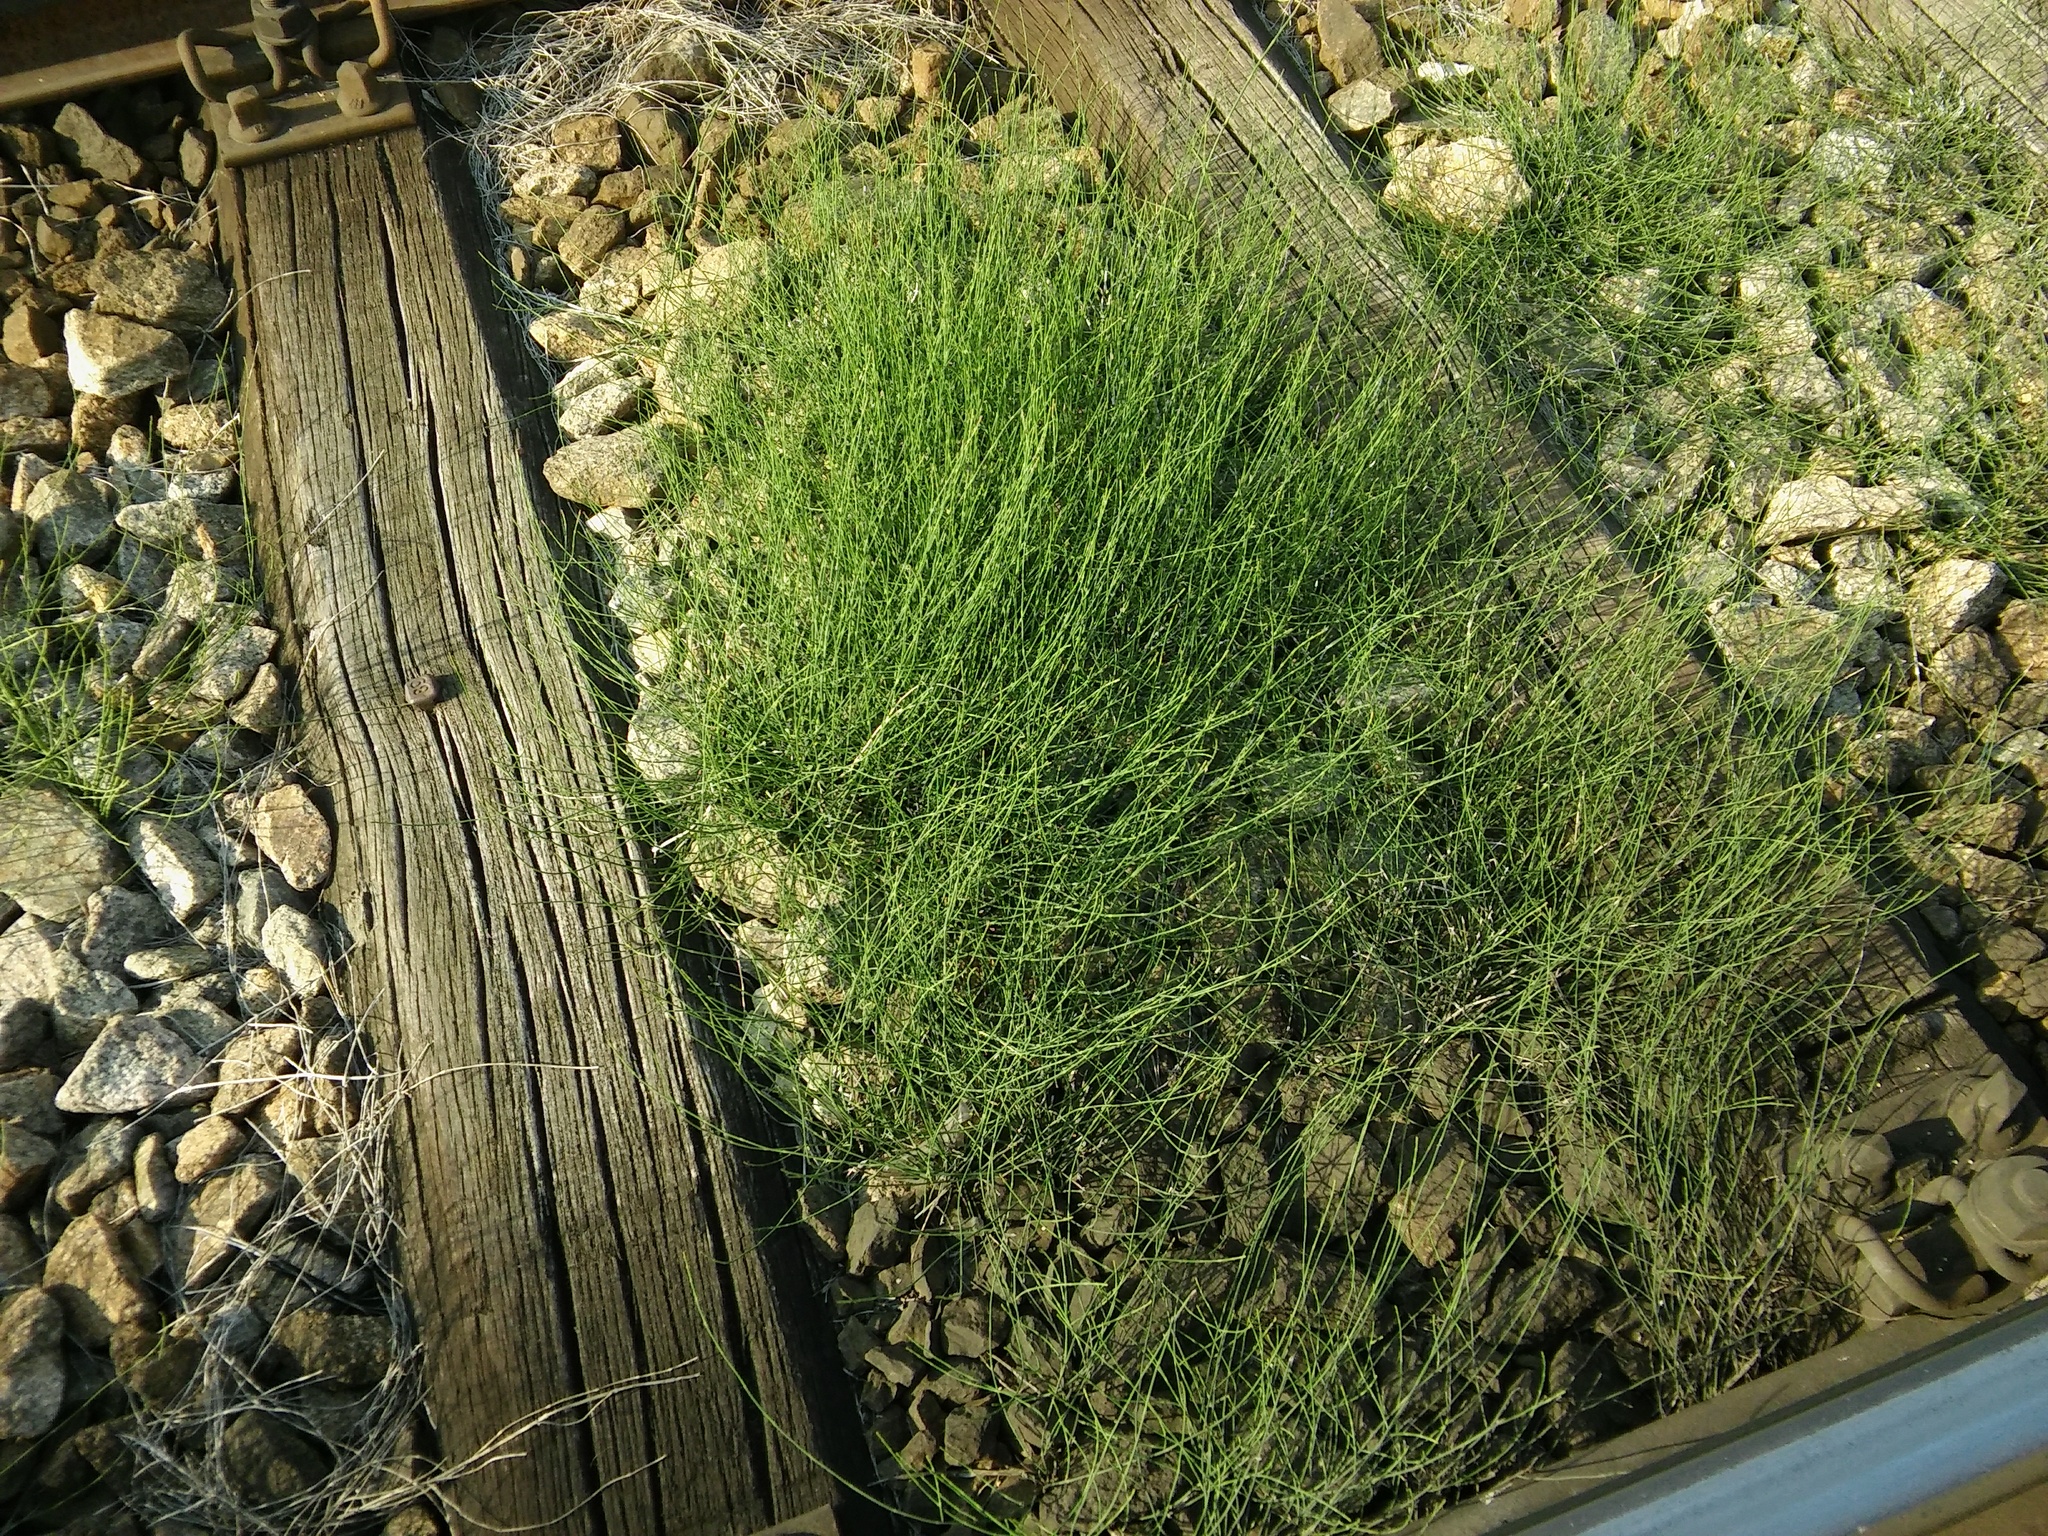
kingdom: Plantae
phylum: Tracheophyta
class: Polypodiopsida
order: Equisetales
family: Equisetaceae
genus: Equisetum
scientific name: Equisetum ramosissimum
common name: Branched horsetail
